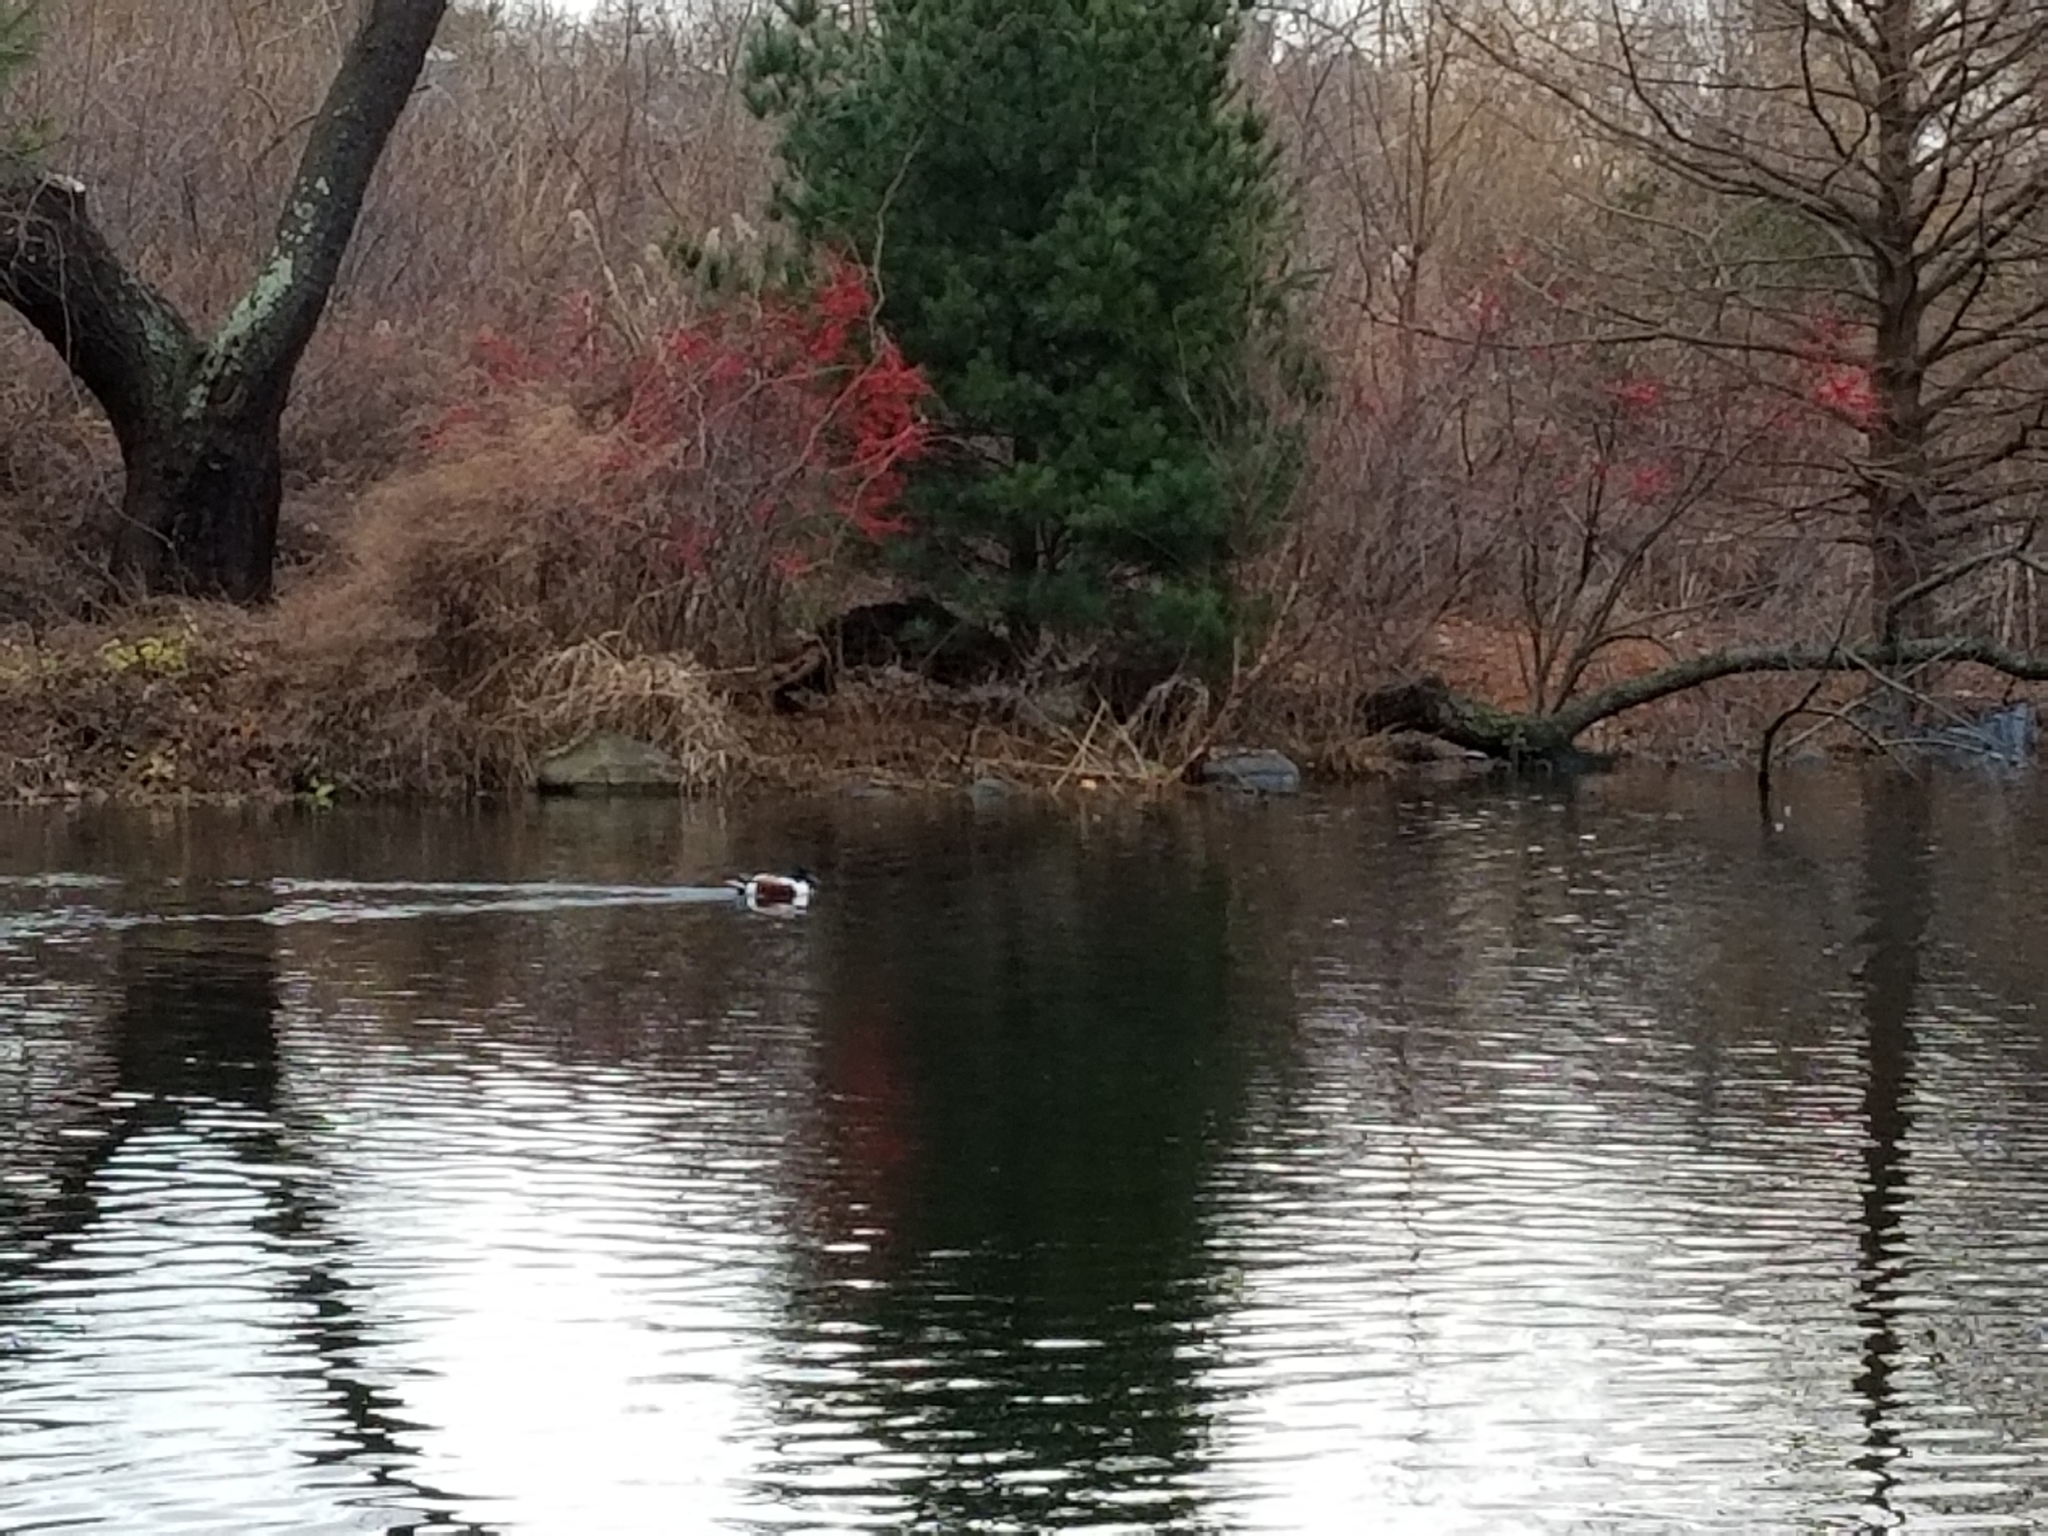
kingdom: Animalia
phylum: Chordata
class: Aves
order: Anseriformes
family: Anatidae
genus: Spatula
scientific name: Spatula clypeata
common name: Northern shoveler
